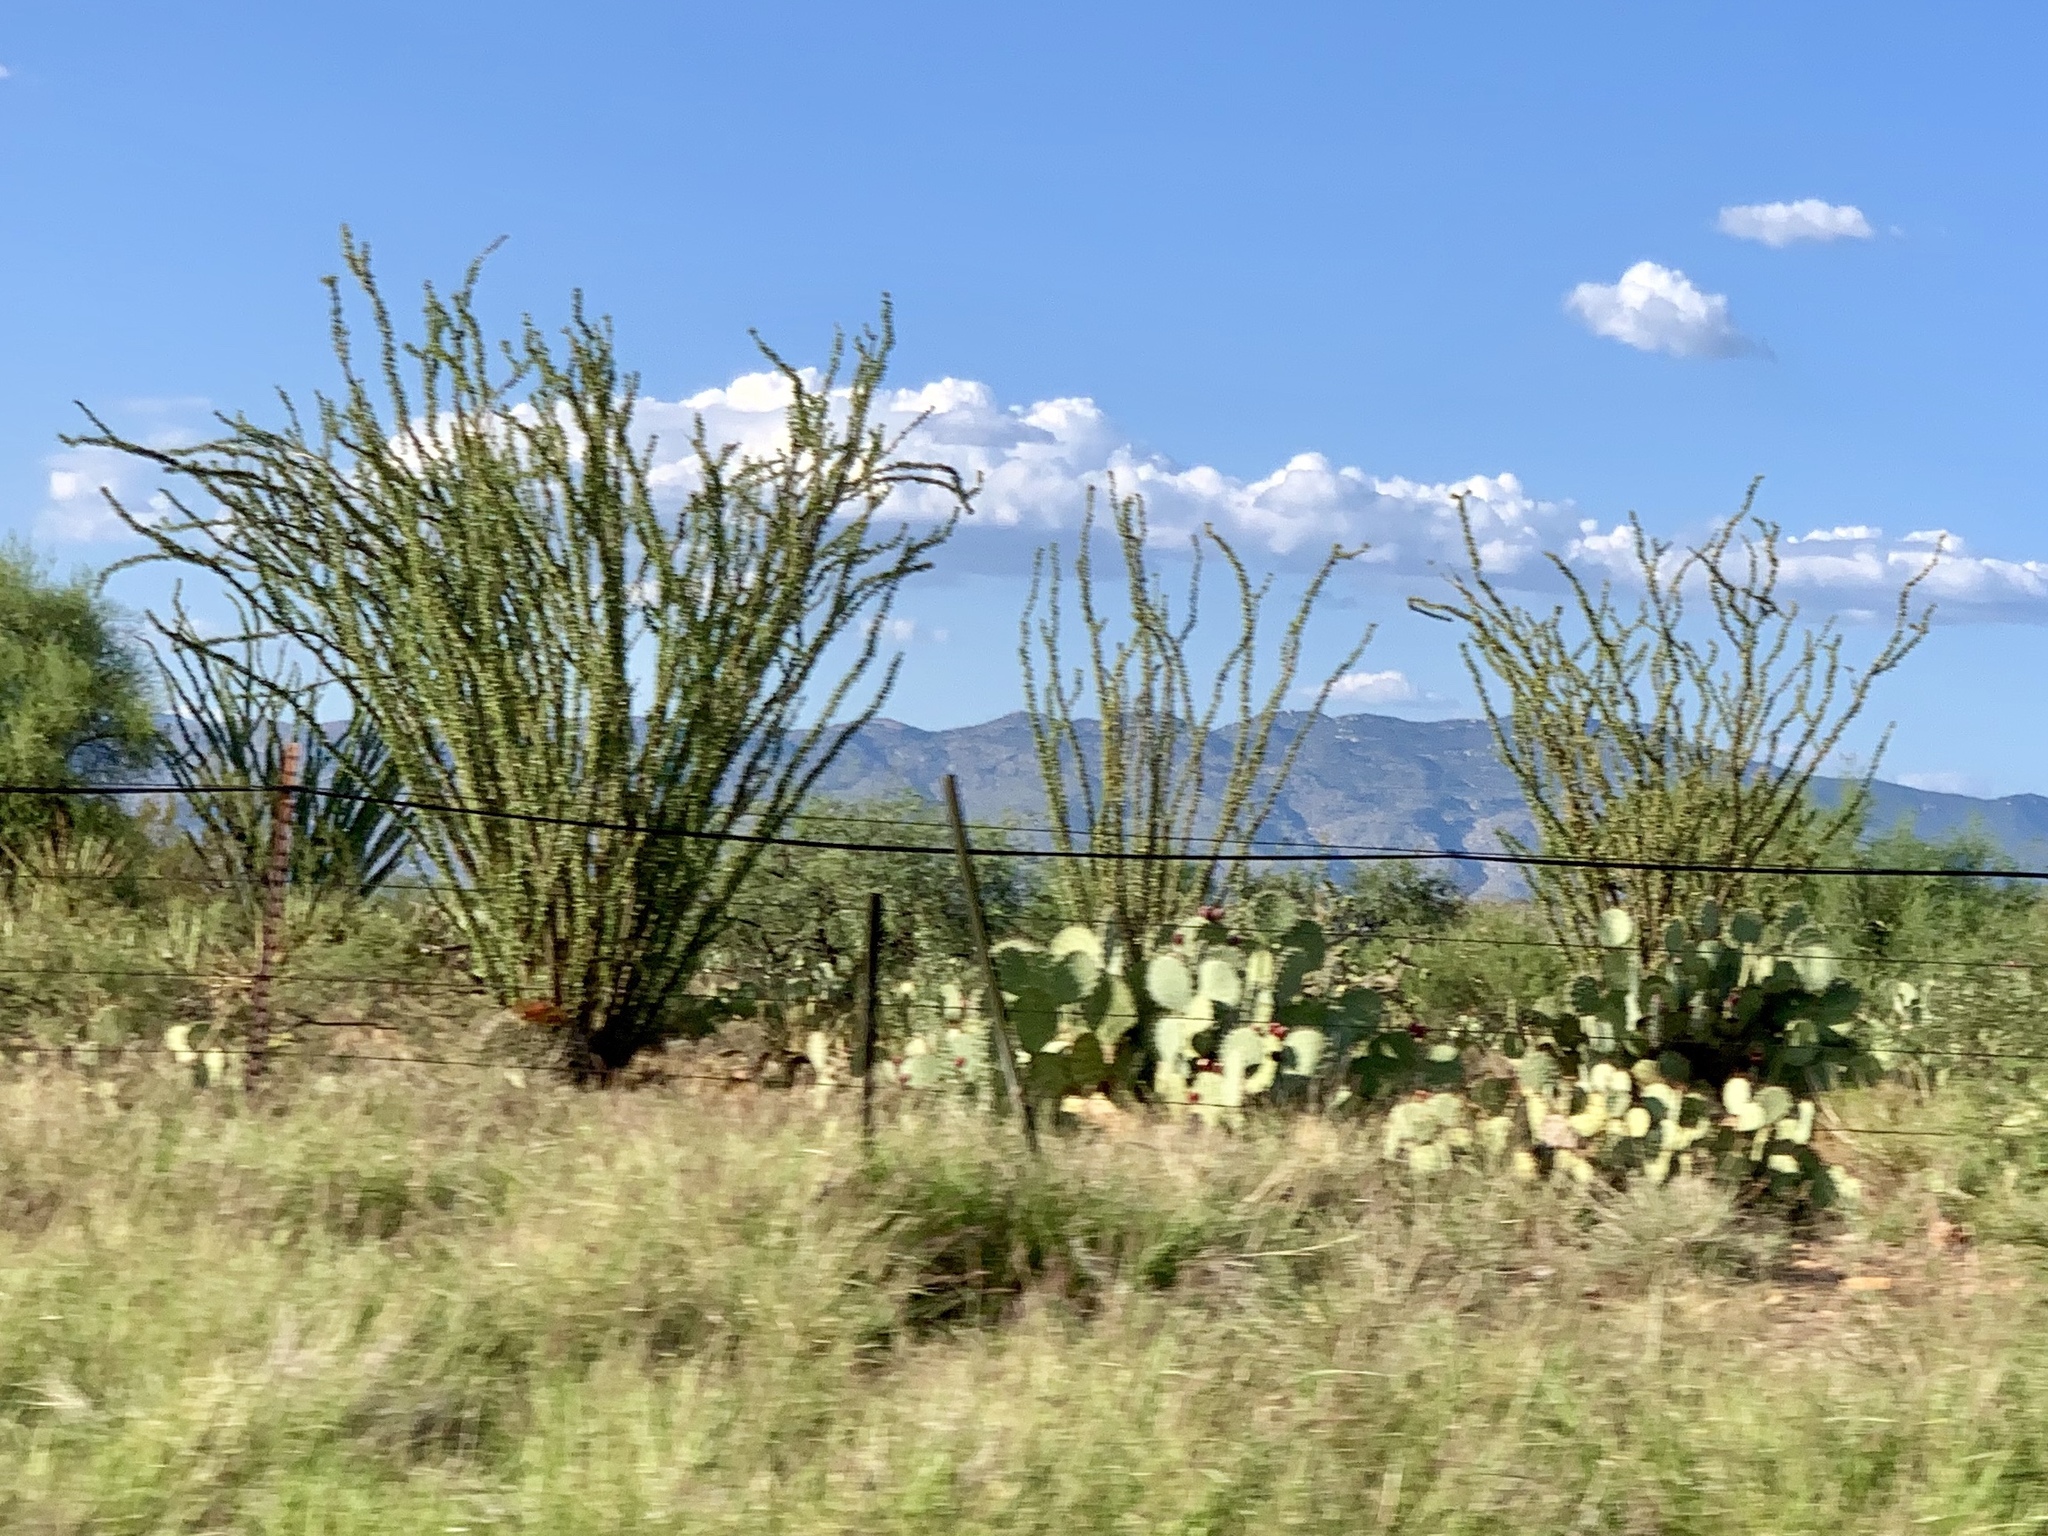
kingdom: Plantae
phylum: Tracheophyta
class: Magnoliopsida
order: Ericales
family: Fouquieriaceae
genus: Fouquieria
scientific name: Fouquieria splendens
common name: Vine-cactus
